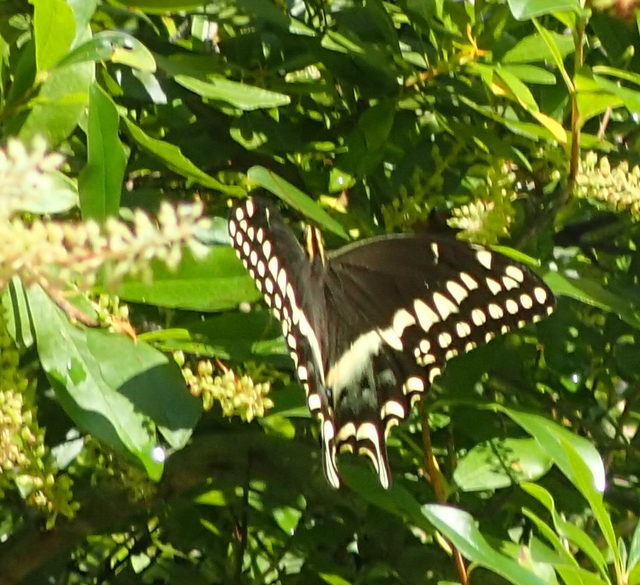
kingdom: Animalia
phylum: Arthropoda
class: Insecta
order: Lepidoptera
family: Papilionidae
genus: Papilio
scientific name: Papilio palamedes
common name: Palamedes swallowtail
